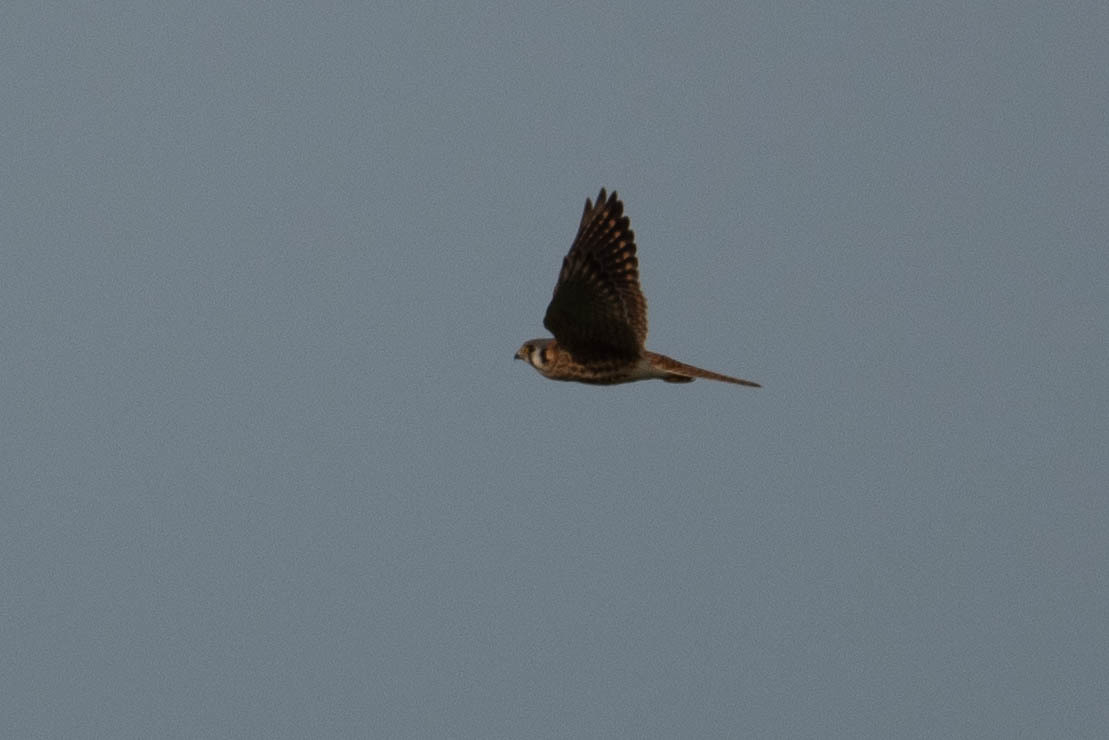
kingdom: Animalia
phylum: Chordata
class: Aves
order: Falconiformes
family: Falconidae
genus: Falco
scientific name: Falco sparverius
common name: American kestrel
